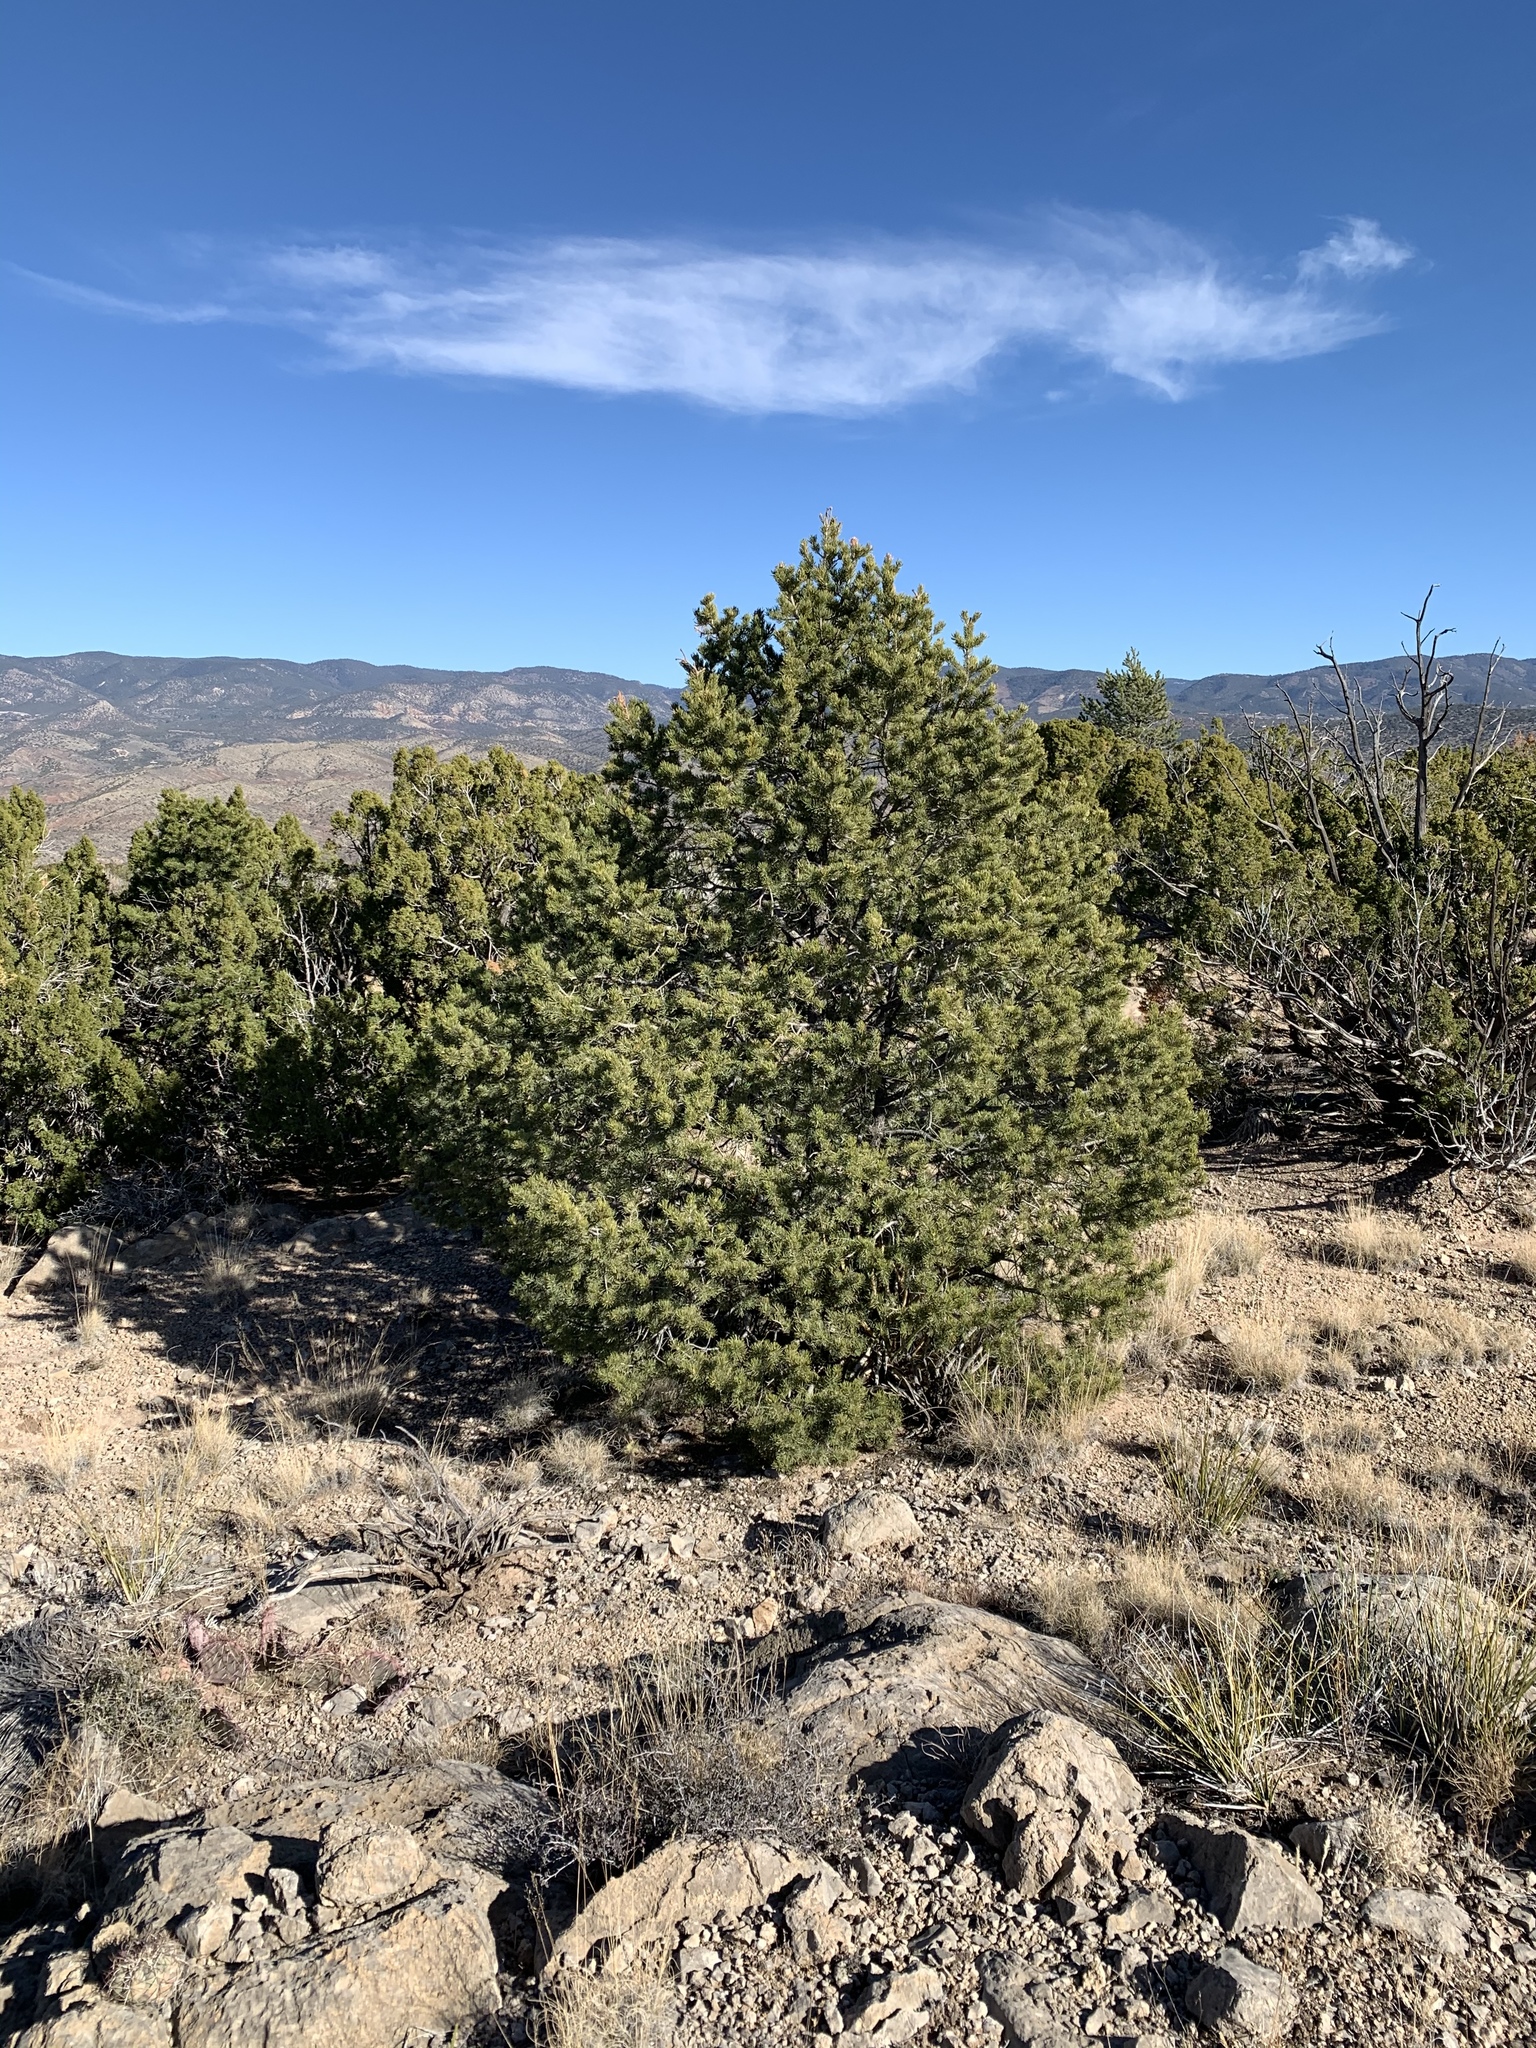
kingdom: Plantae
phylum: Tracheophyta
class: Pinopsida
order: Pinales
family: Pinaceae
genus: Pinus
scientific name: Pinus edulis
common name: Colorado pinyon
